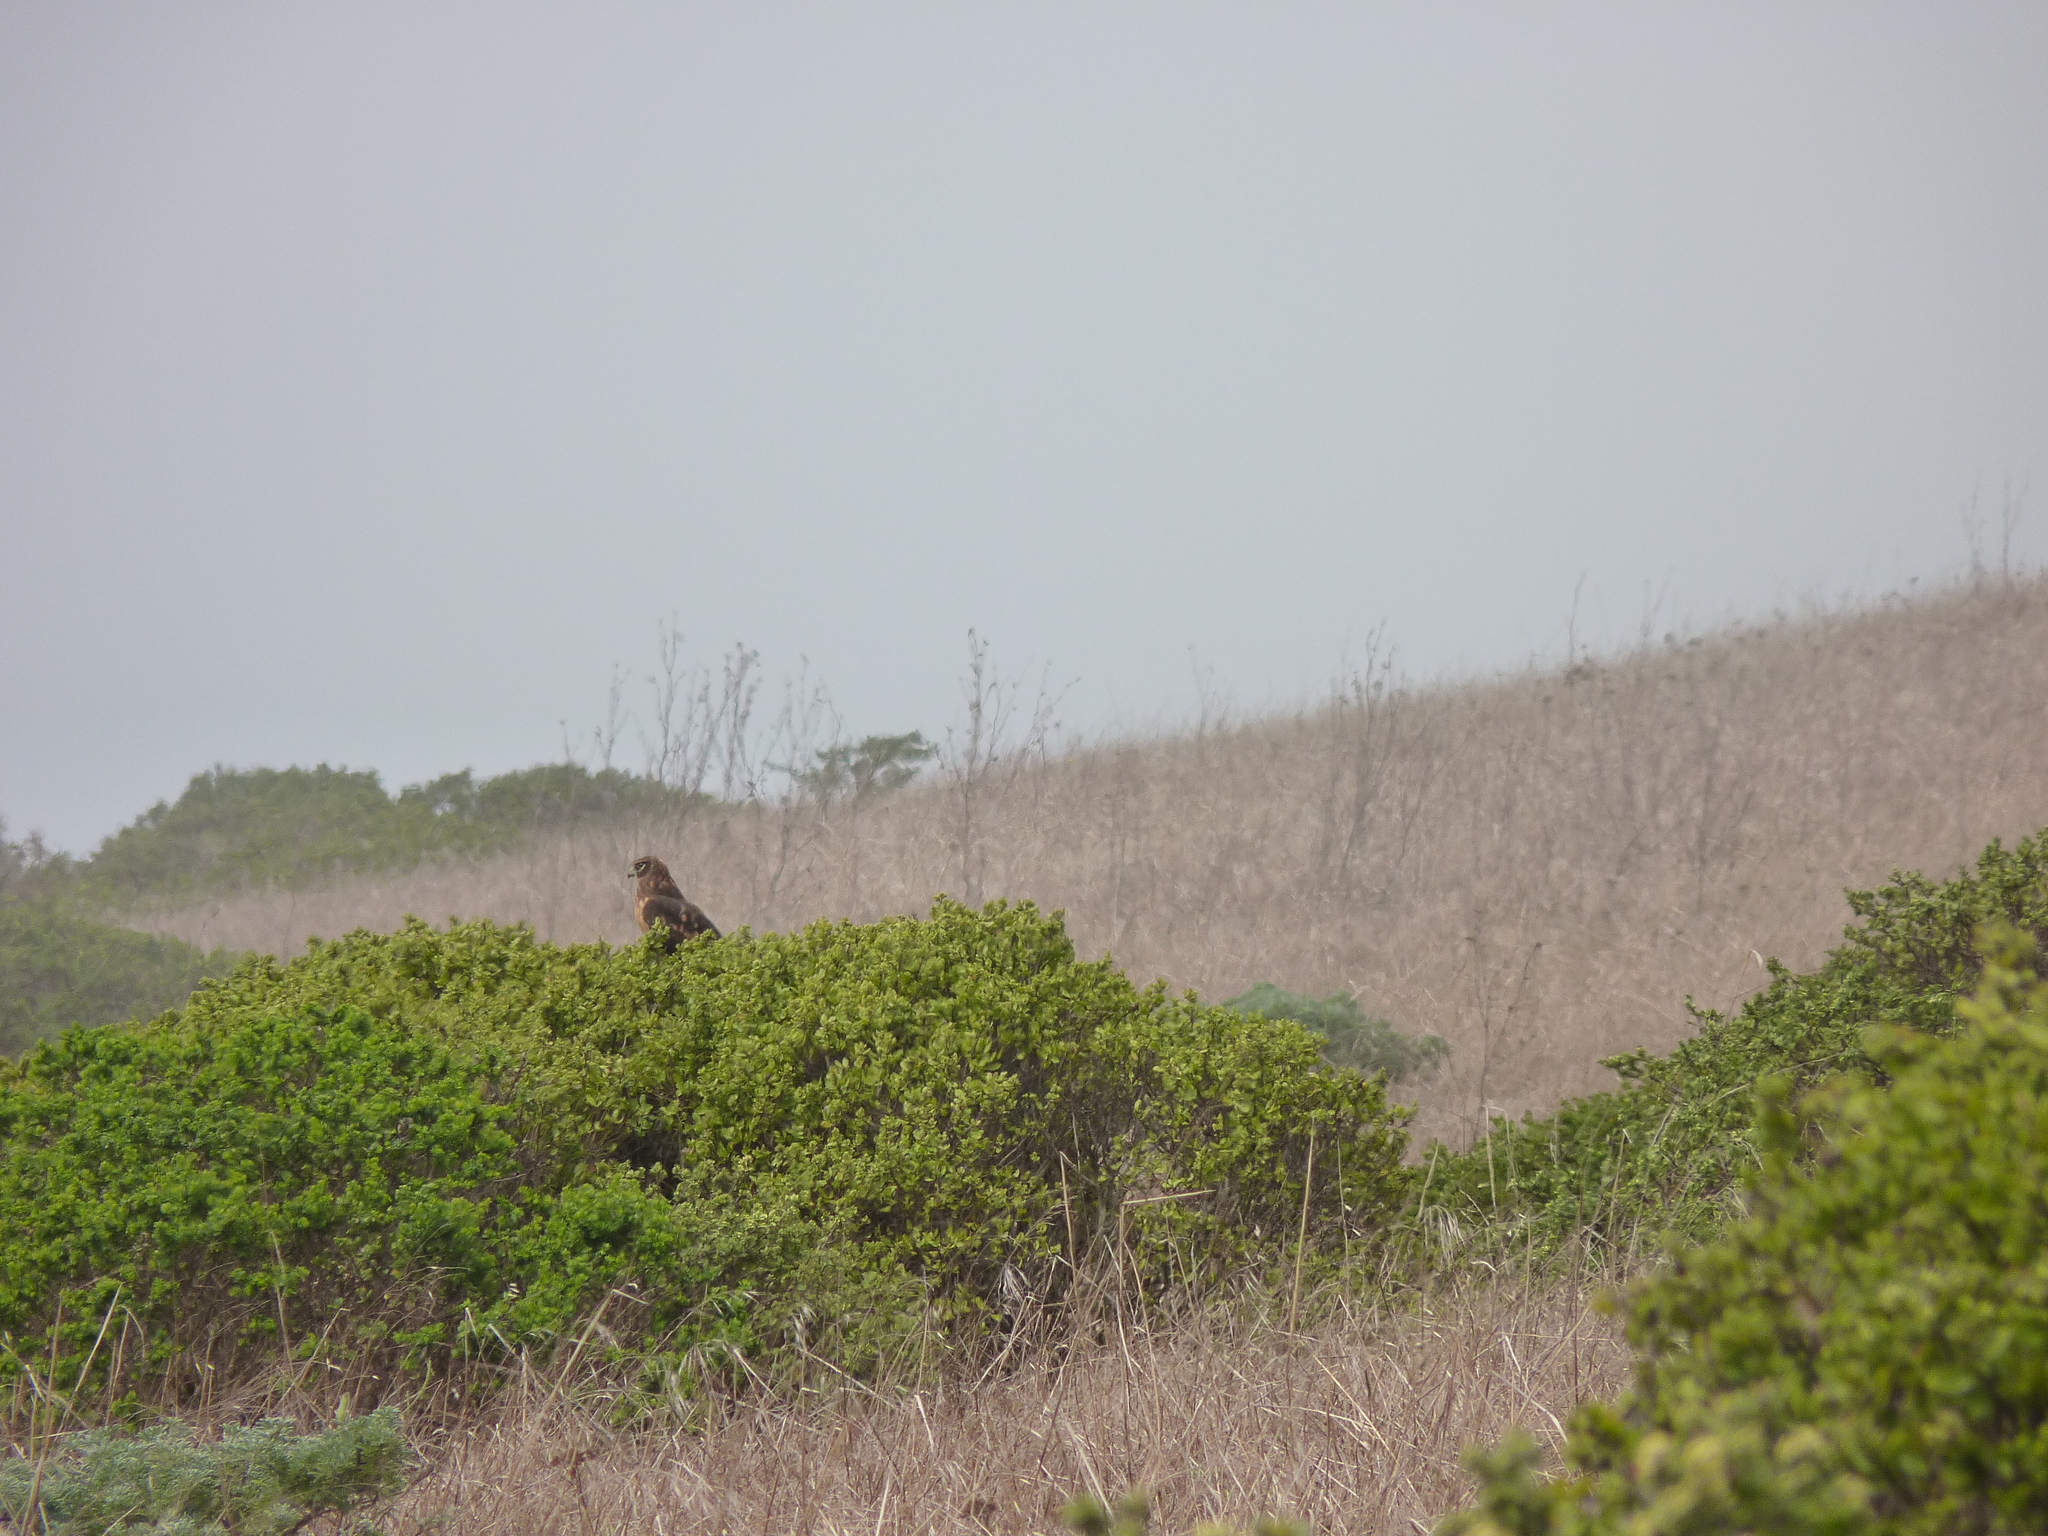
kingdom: Animalia
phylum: Chordata
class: Aves
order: Accipitriformes
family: Accipitridae
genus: Circus
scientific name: Circus cyaneus
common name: Hen harrier
